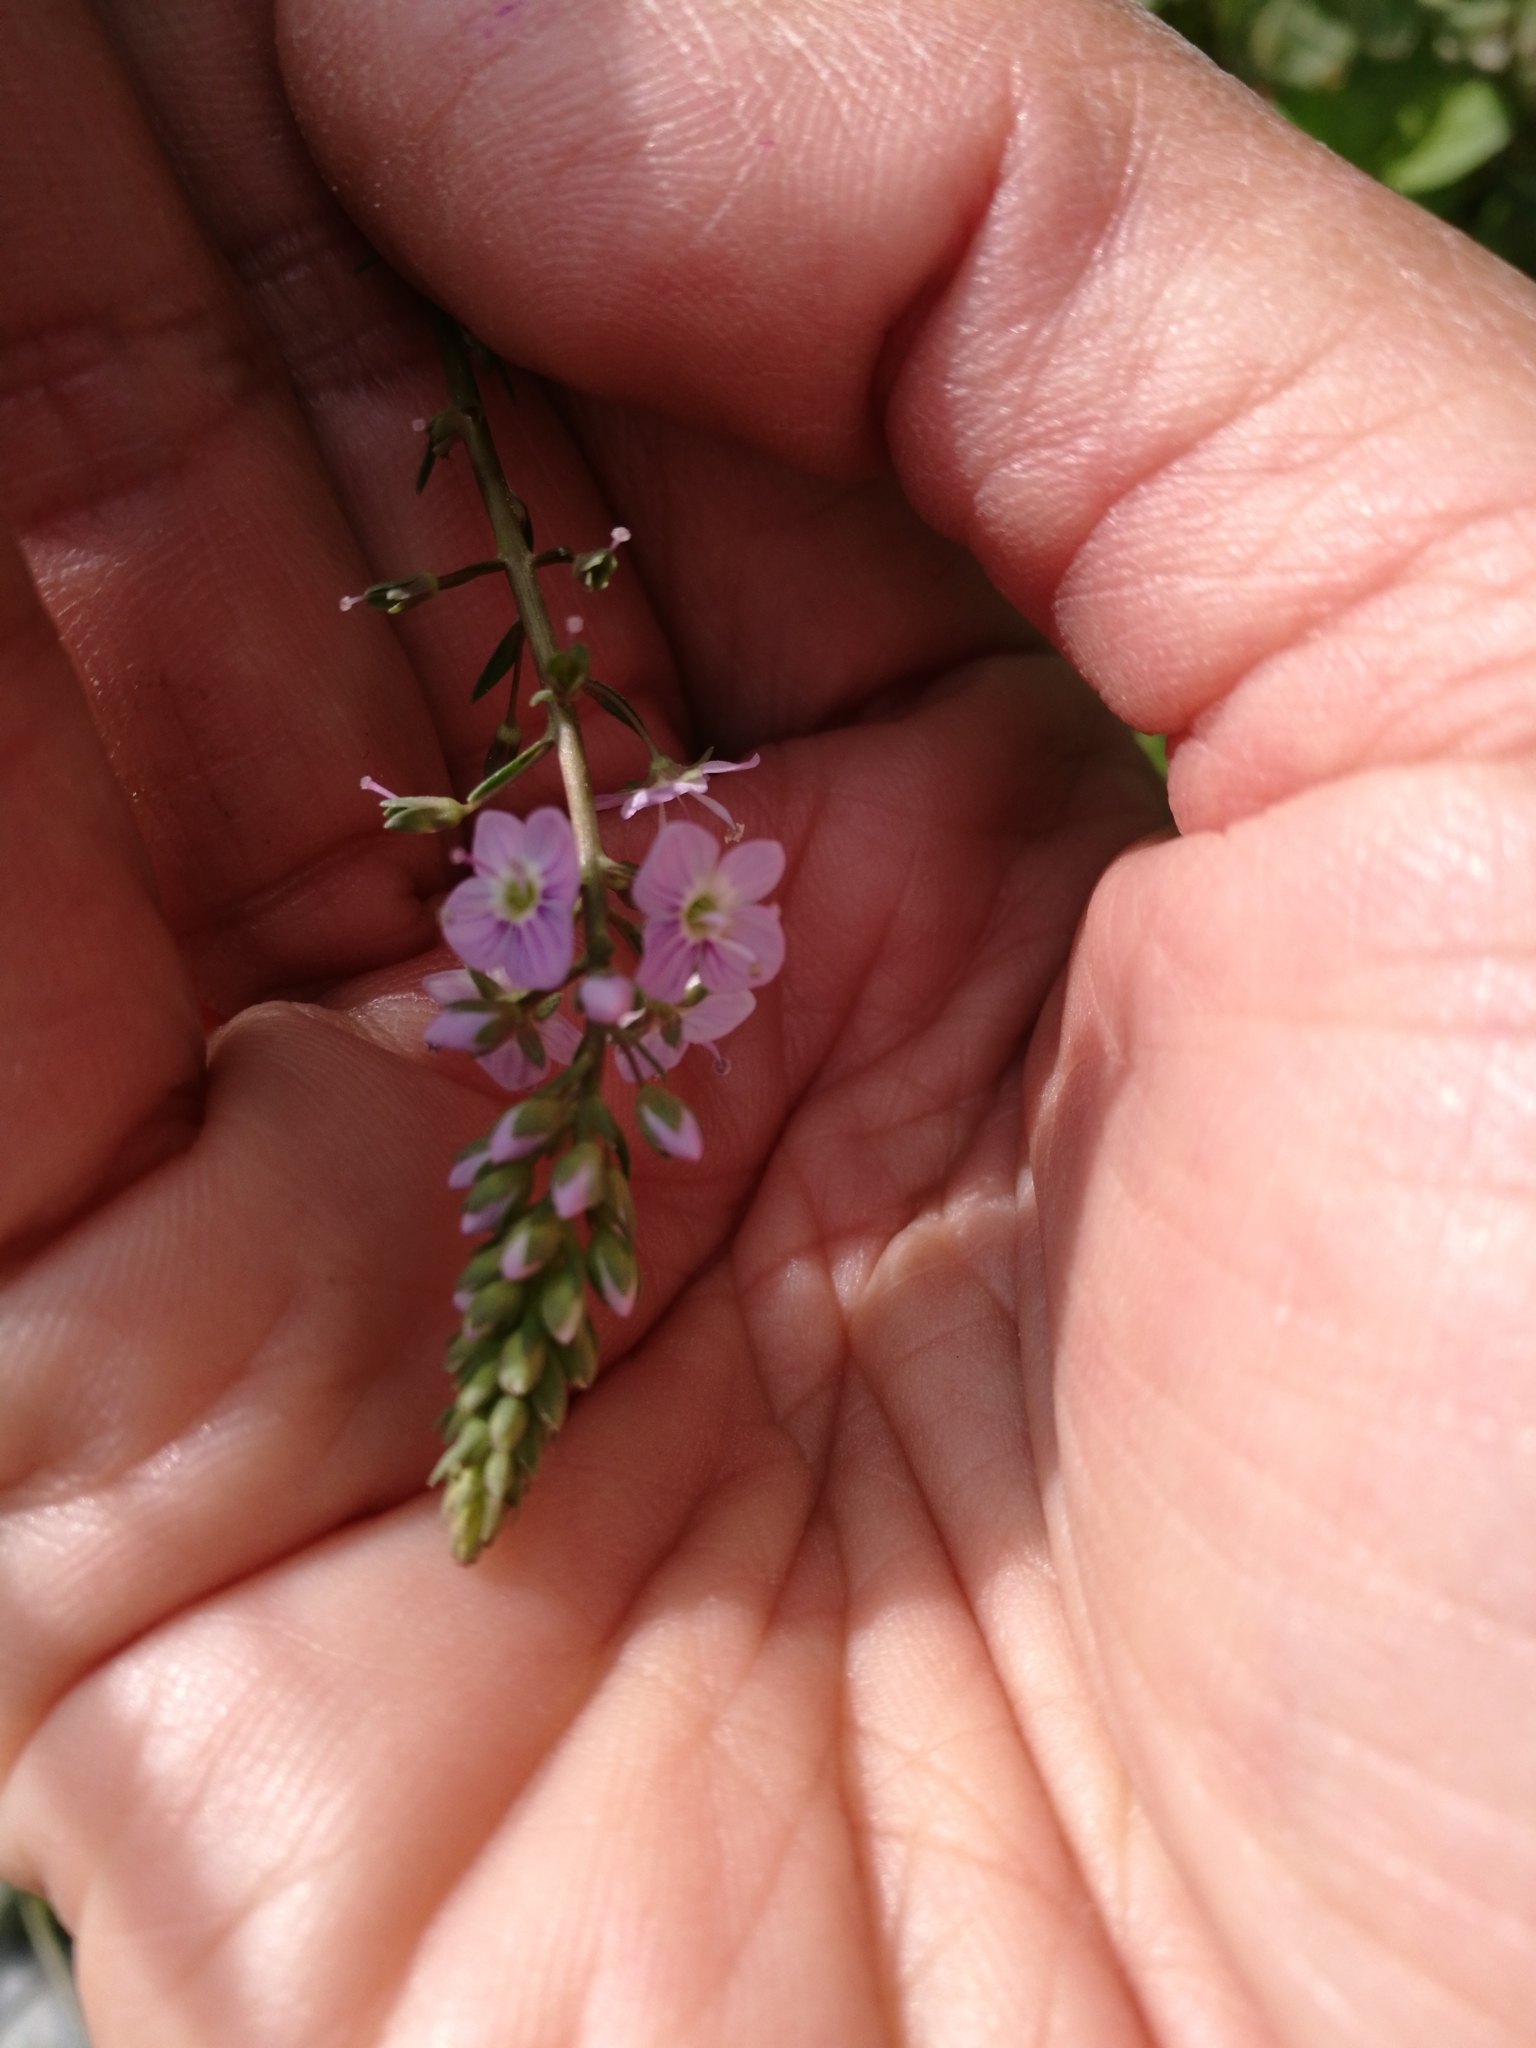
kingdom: Plantae
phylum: Tracheophyta
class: Magnoliopsida
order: Lamiales
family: Plantaginaceae
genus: Veronica
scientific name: Veronica anagallis-aquatica
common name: Water speedwell
